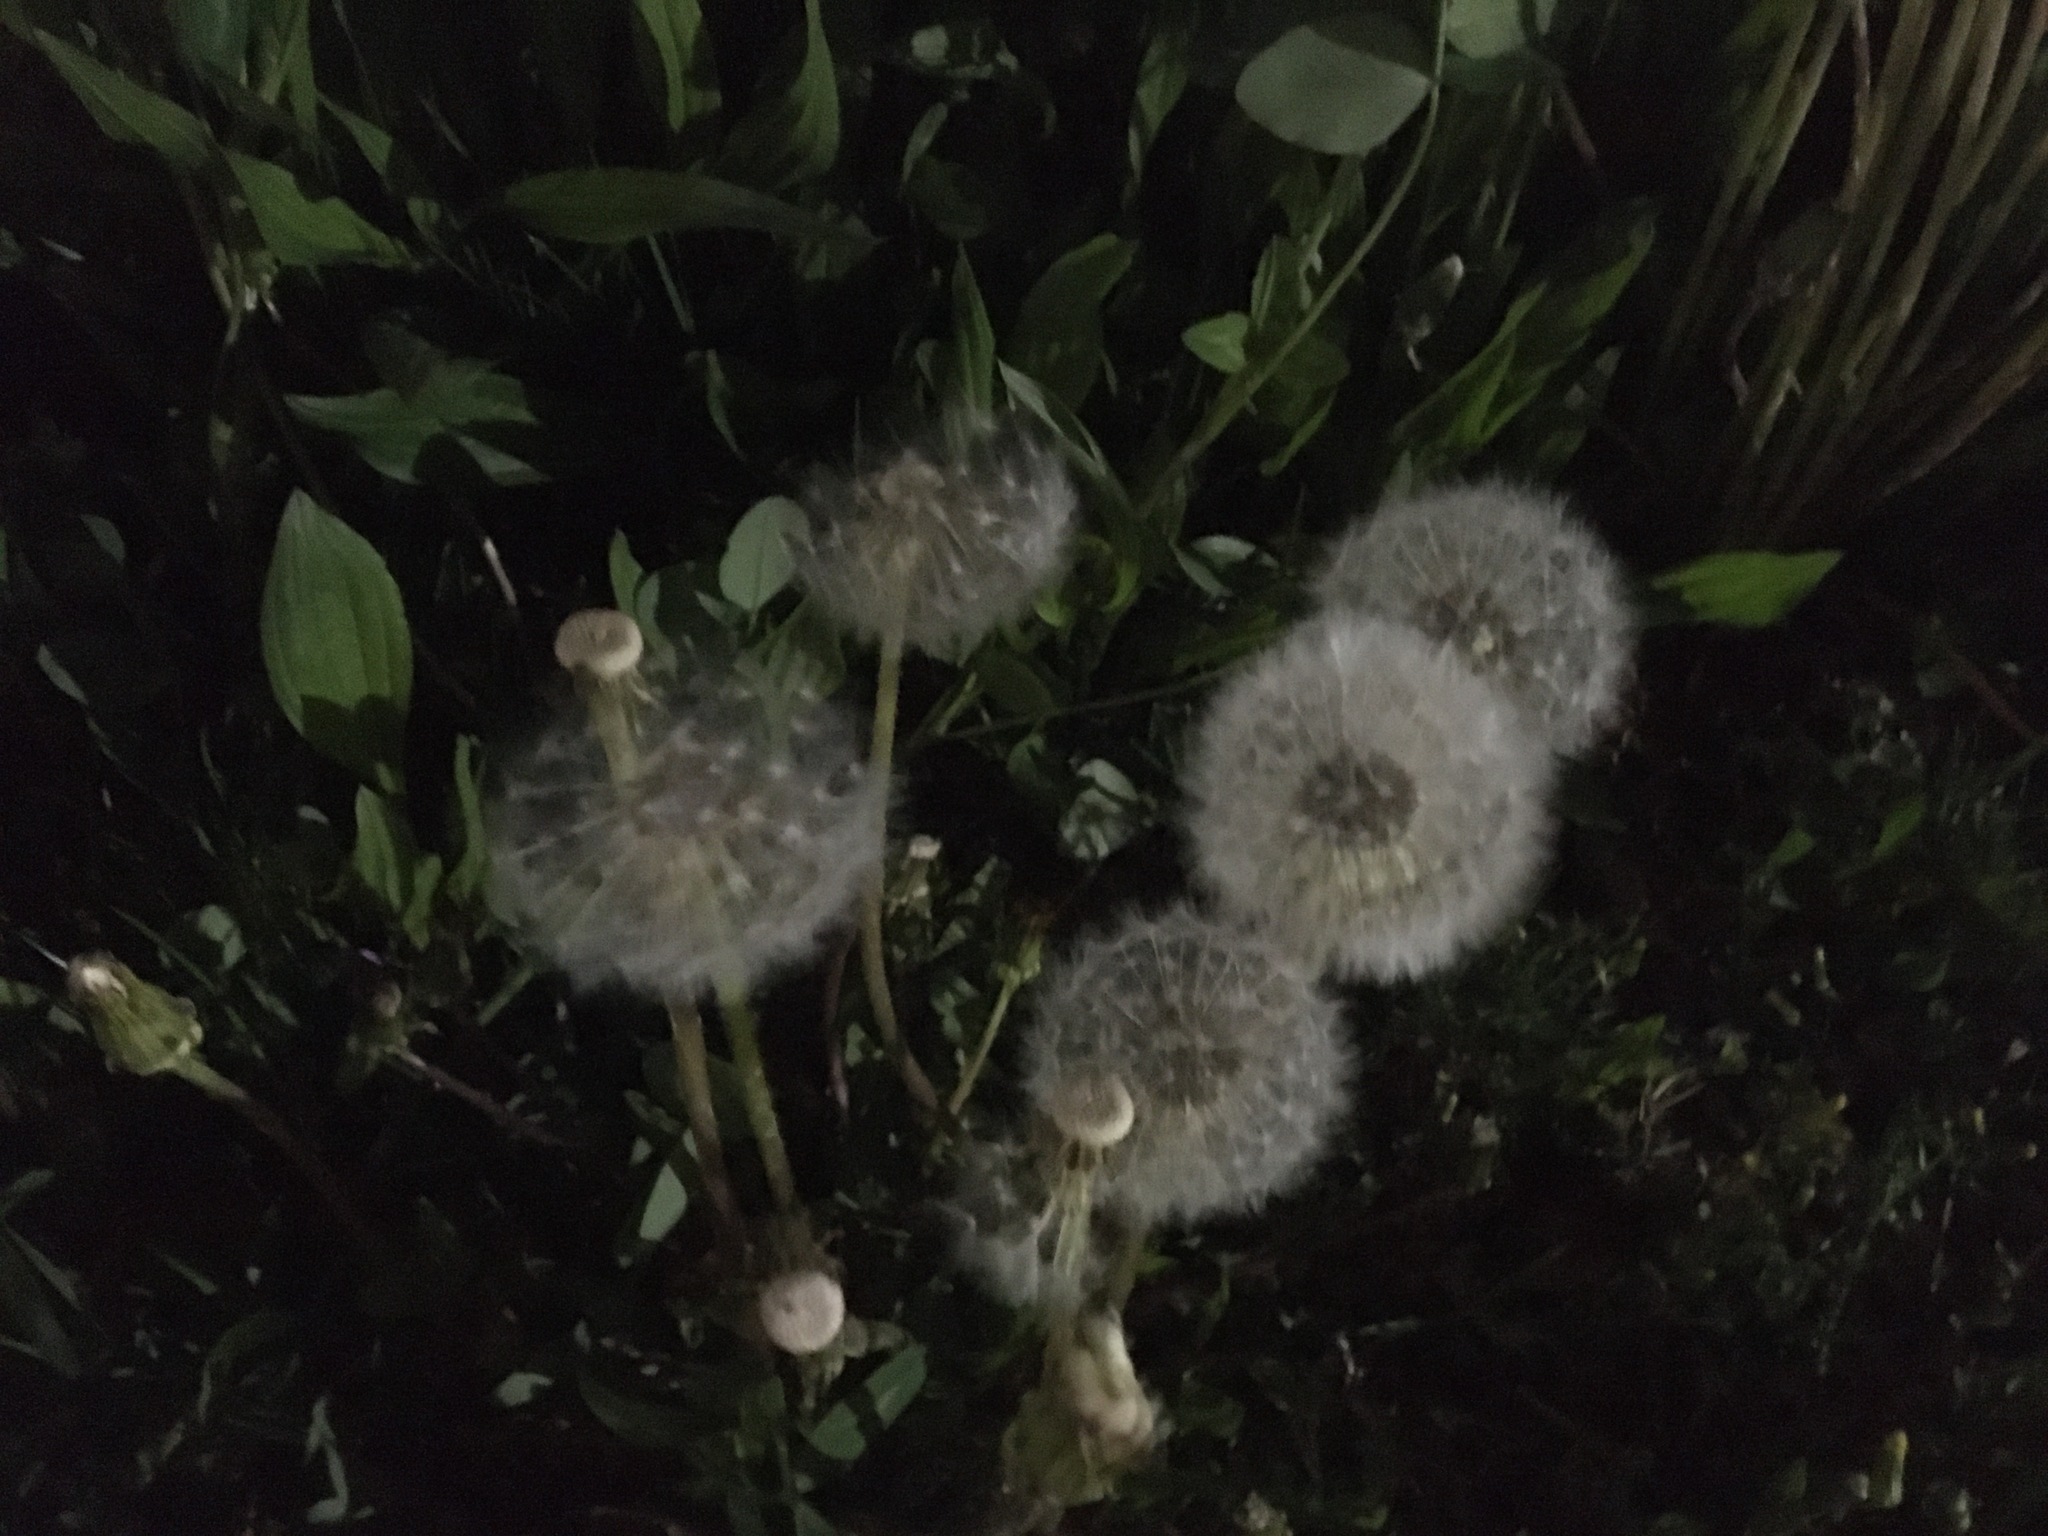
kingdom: Plantae
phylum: Tracheophyta
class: Magnoliopsida
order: Asterales
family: Asteraceae
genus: Taraxacum
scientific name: Taraxacum officinale
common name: Common dandelion
